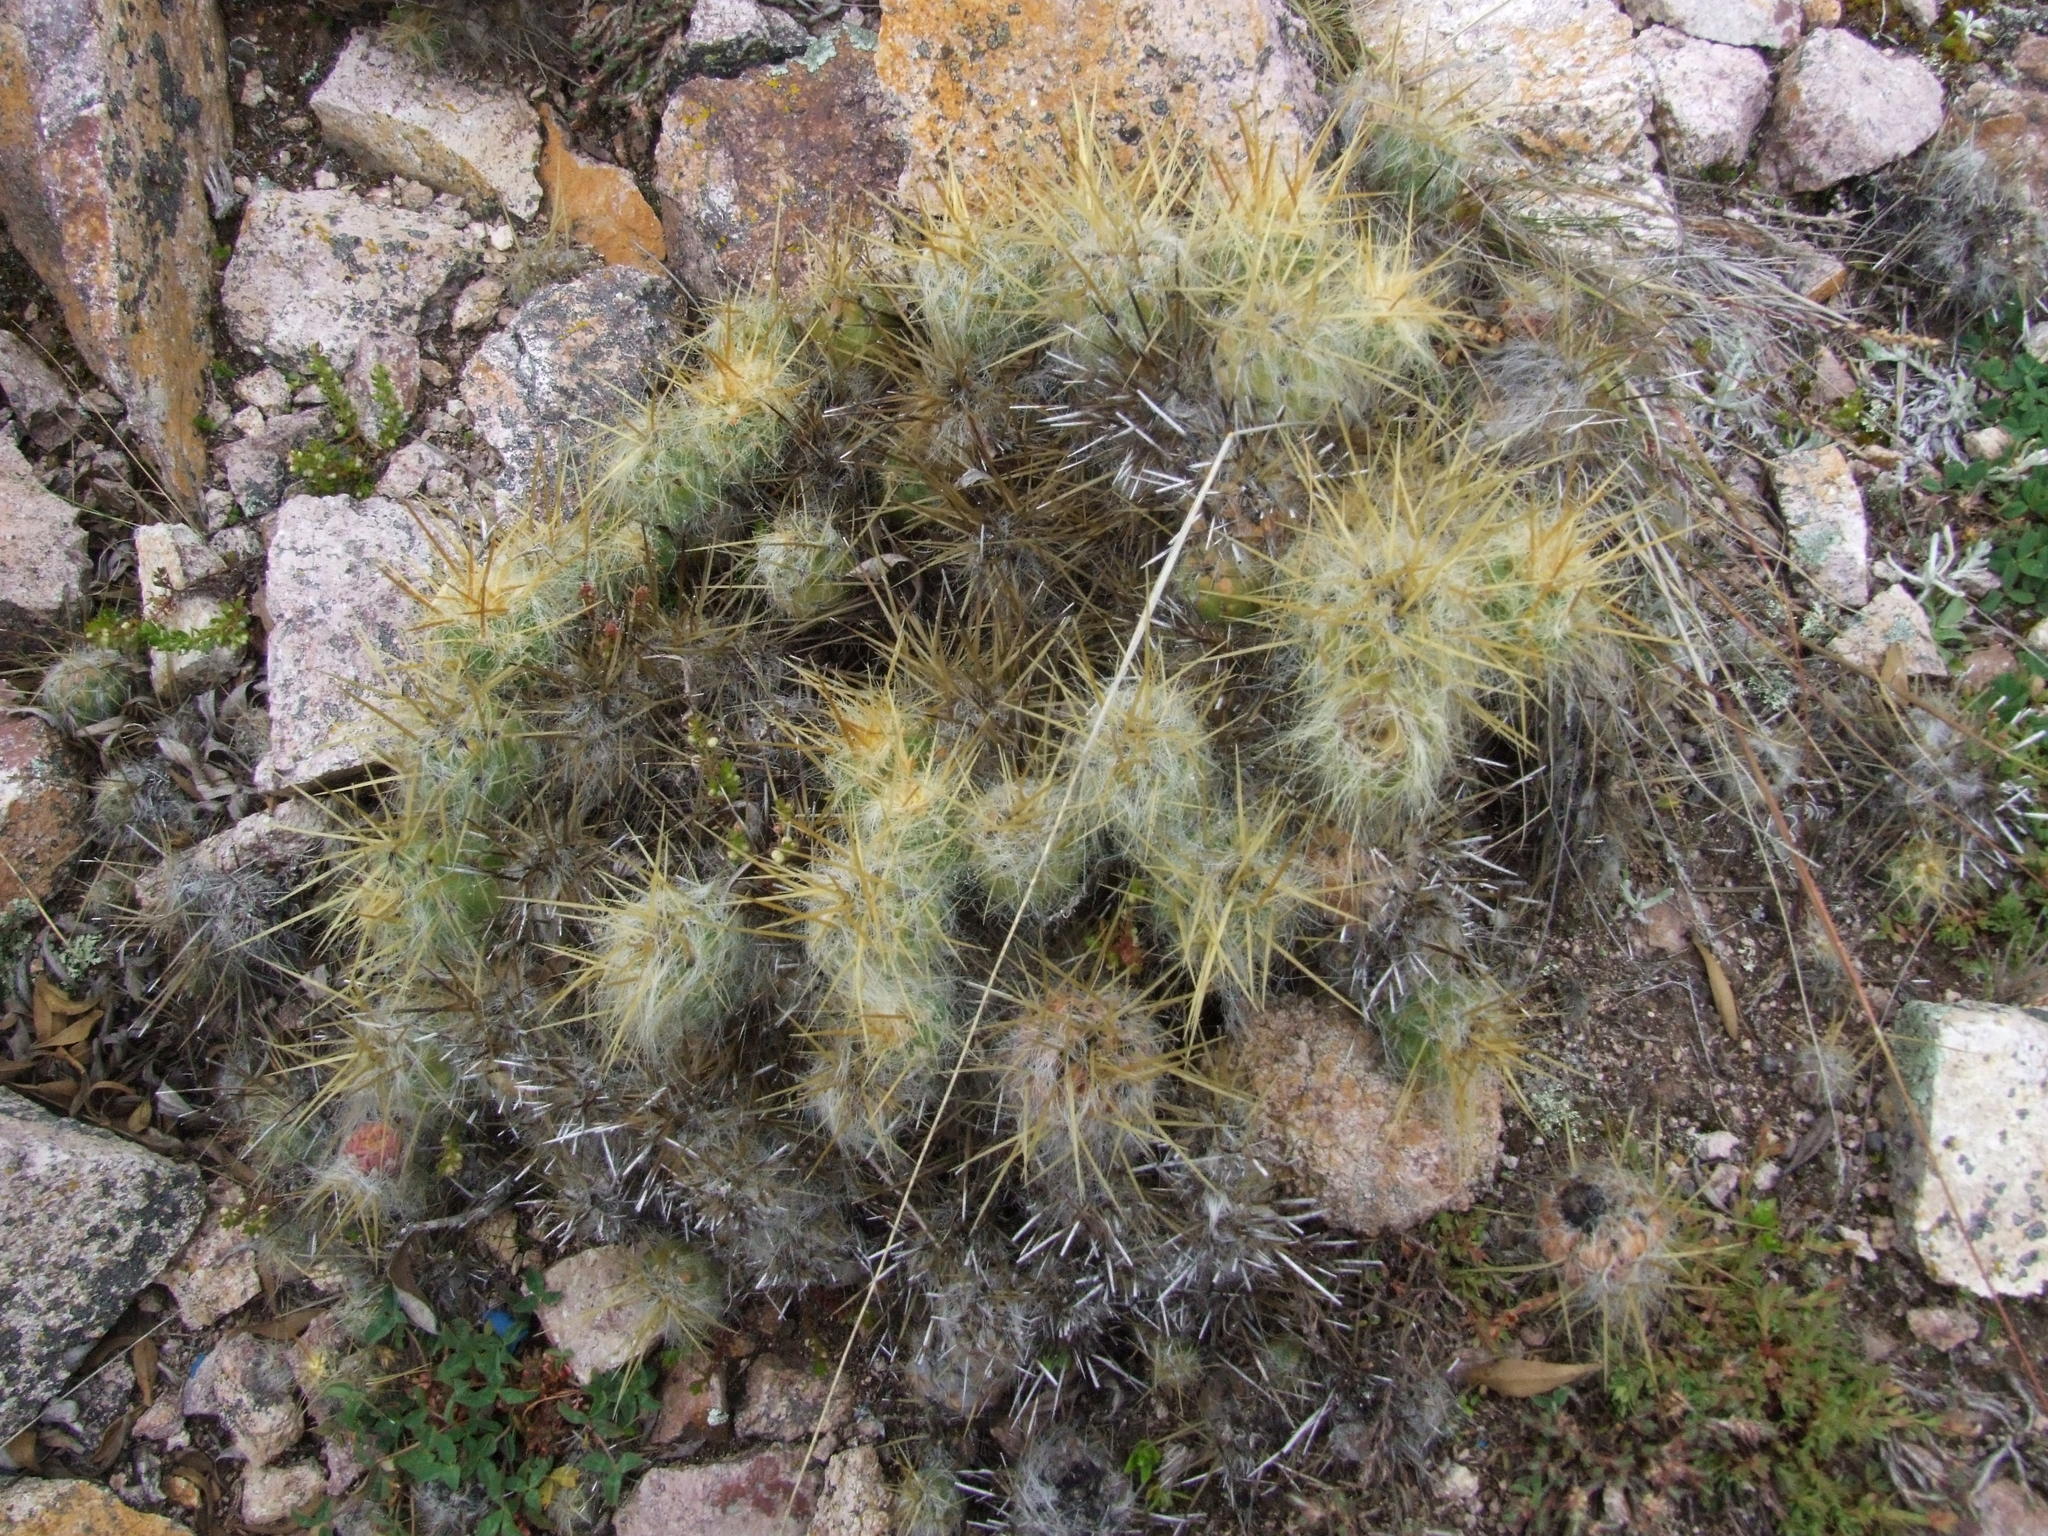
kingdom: Plantae
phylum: Tracheophyta
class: Magnoliopsida
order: Caryophyllales
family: Cactaceae
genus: Austrocylindropuntia
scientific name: Austrocylindropuntia floccosa
